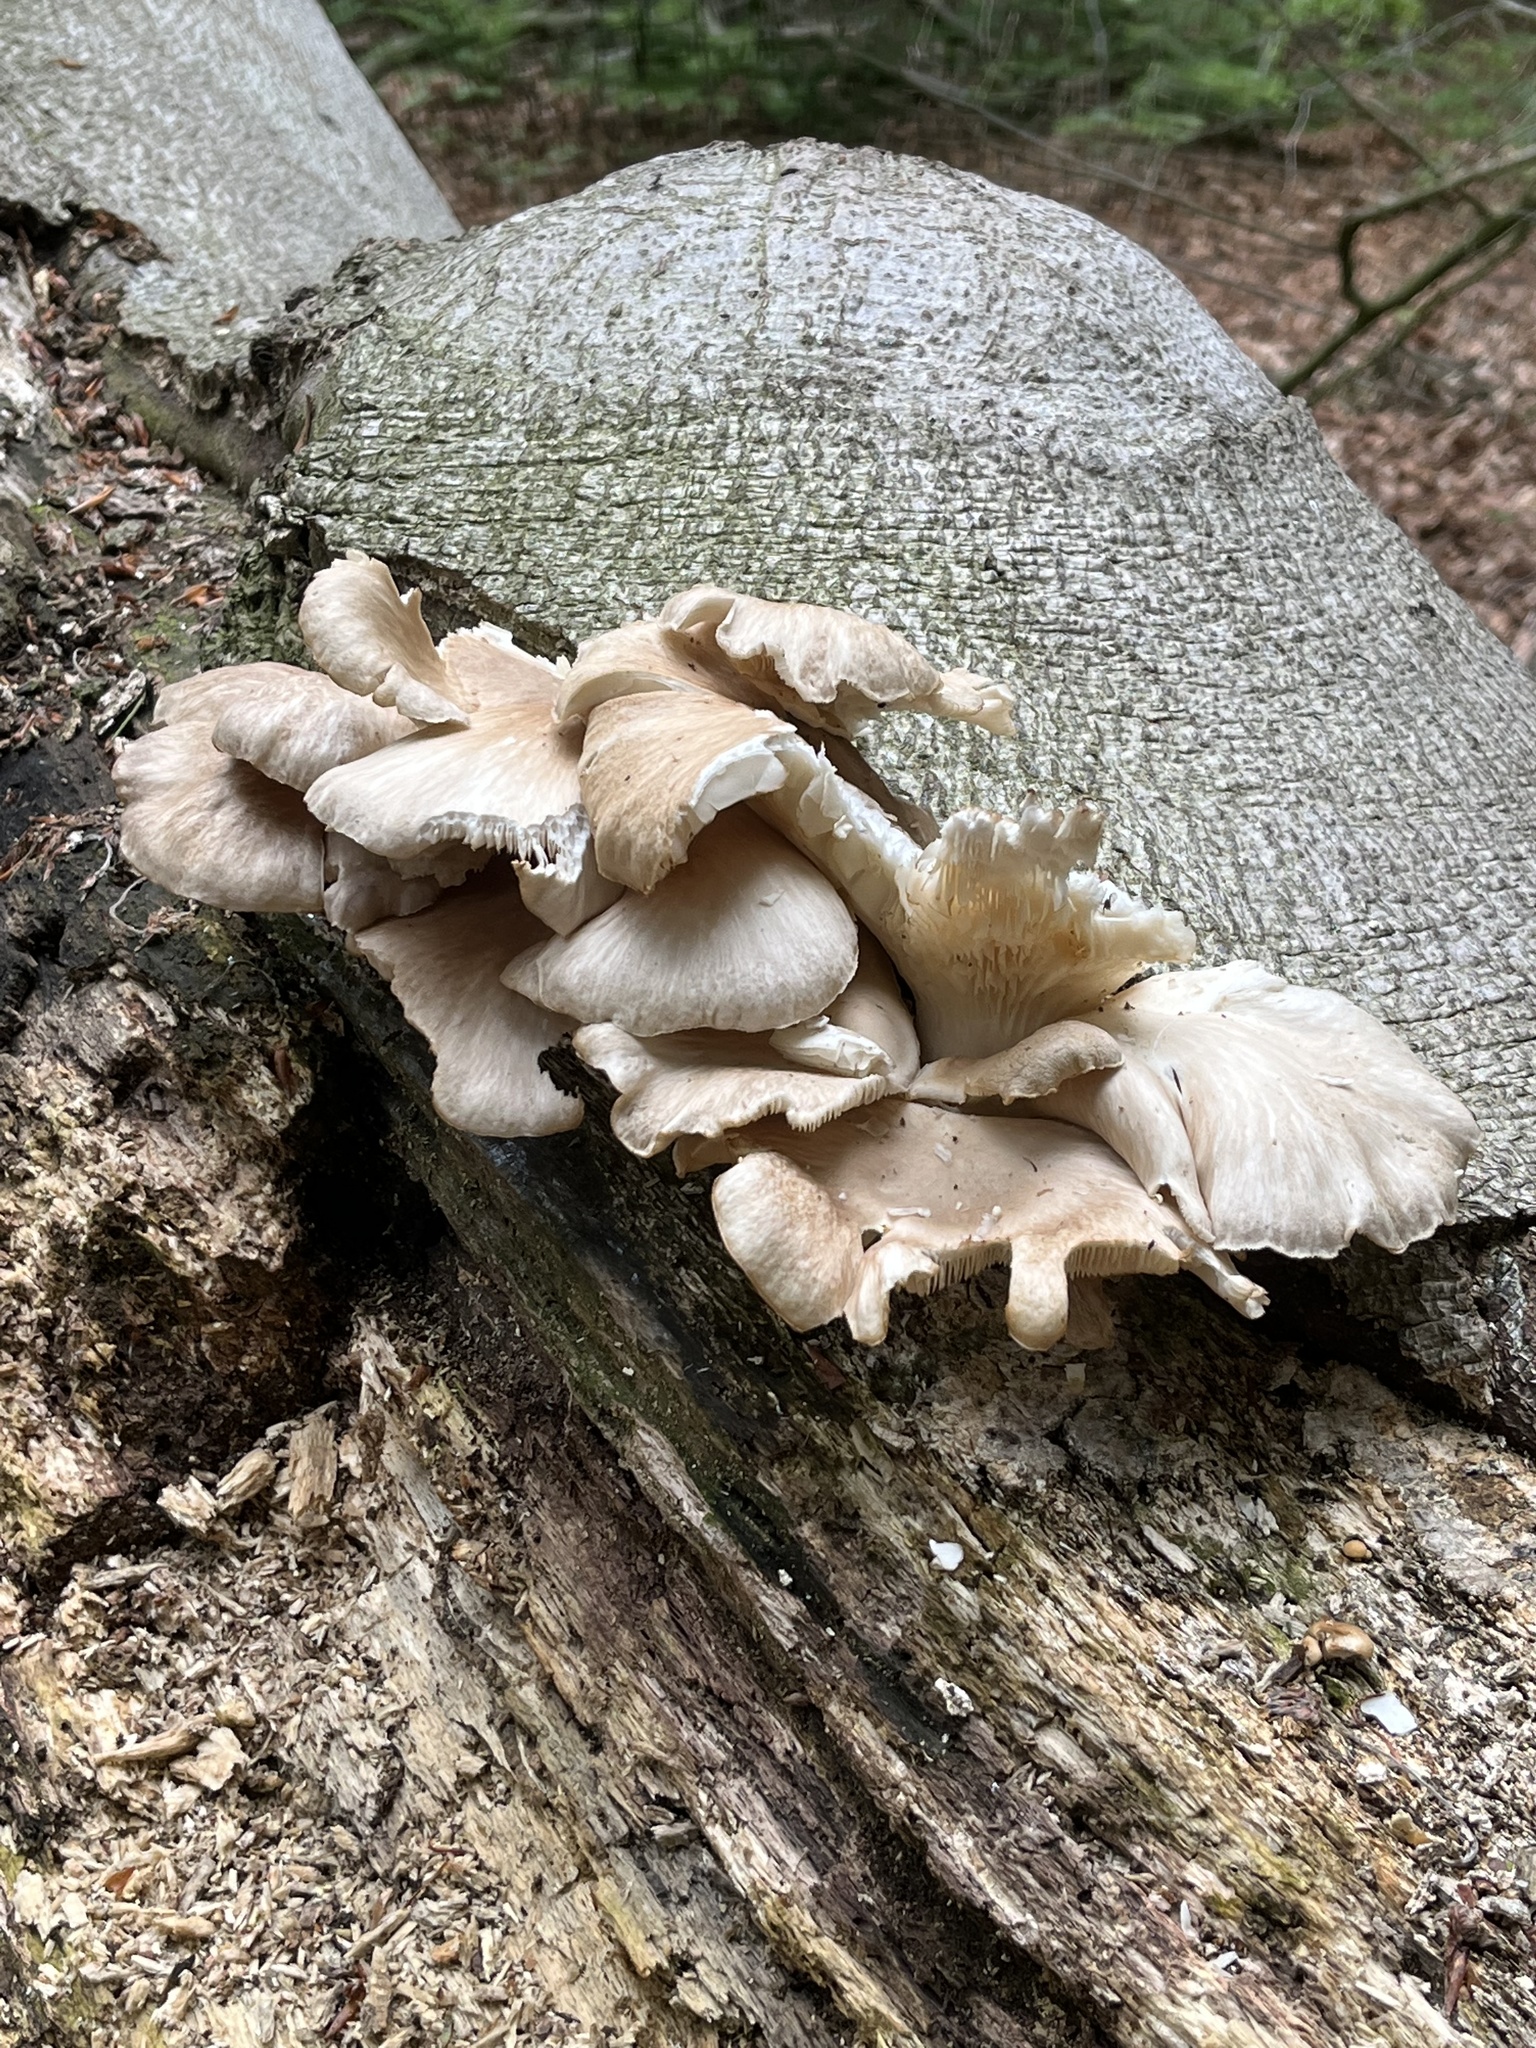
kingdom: Fungi
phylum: Basidiomycota
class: Agaricomycetes
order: Agaricales
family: Pleurotaceae
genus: Pleurotus
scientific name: Pleurotus ostreatus
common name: Oyster mushroom
